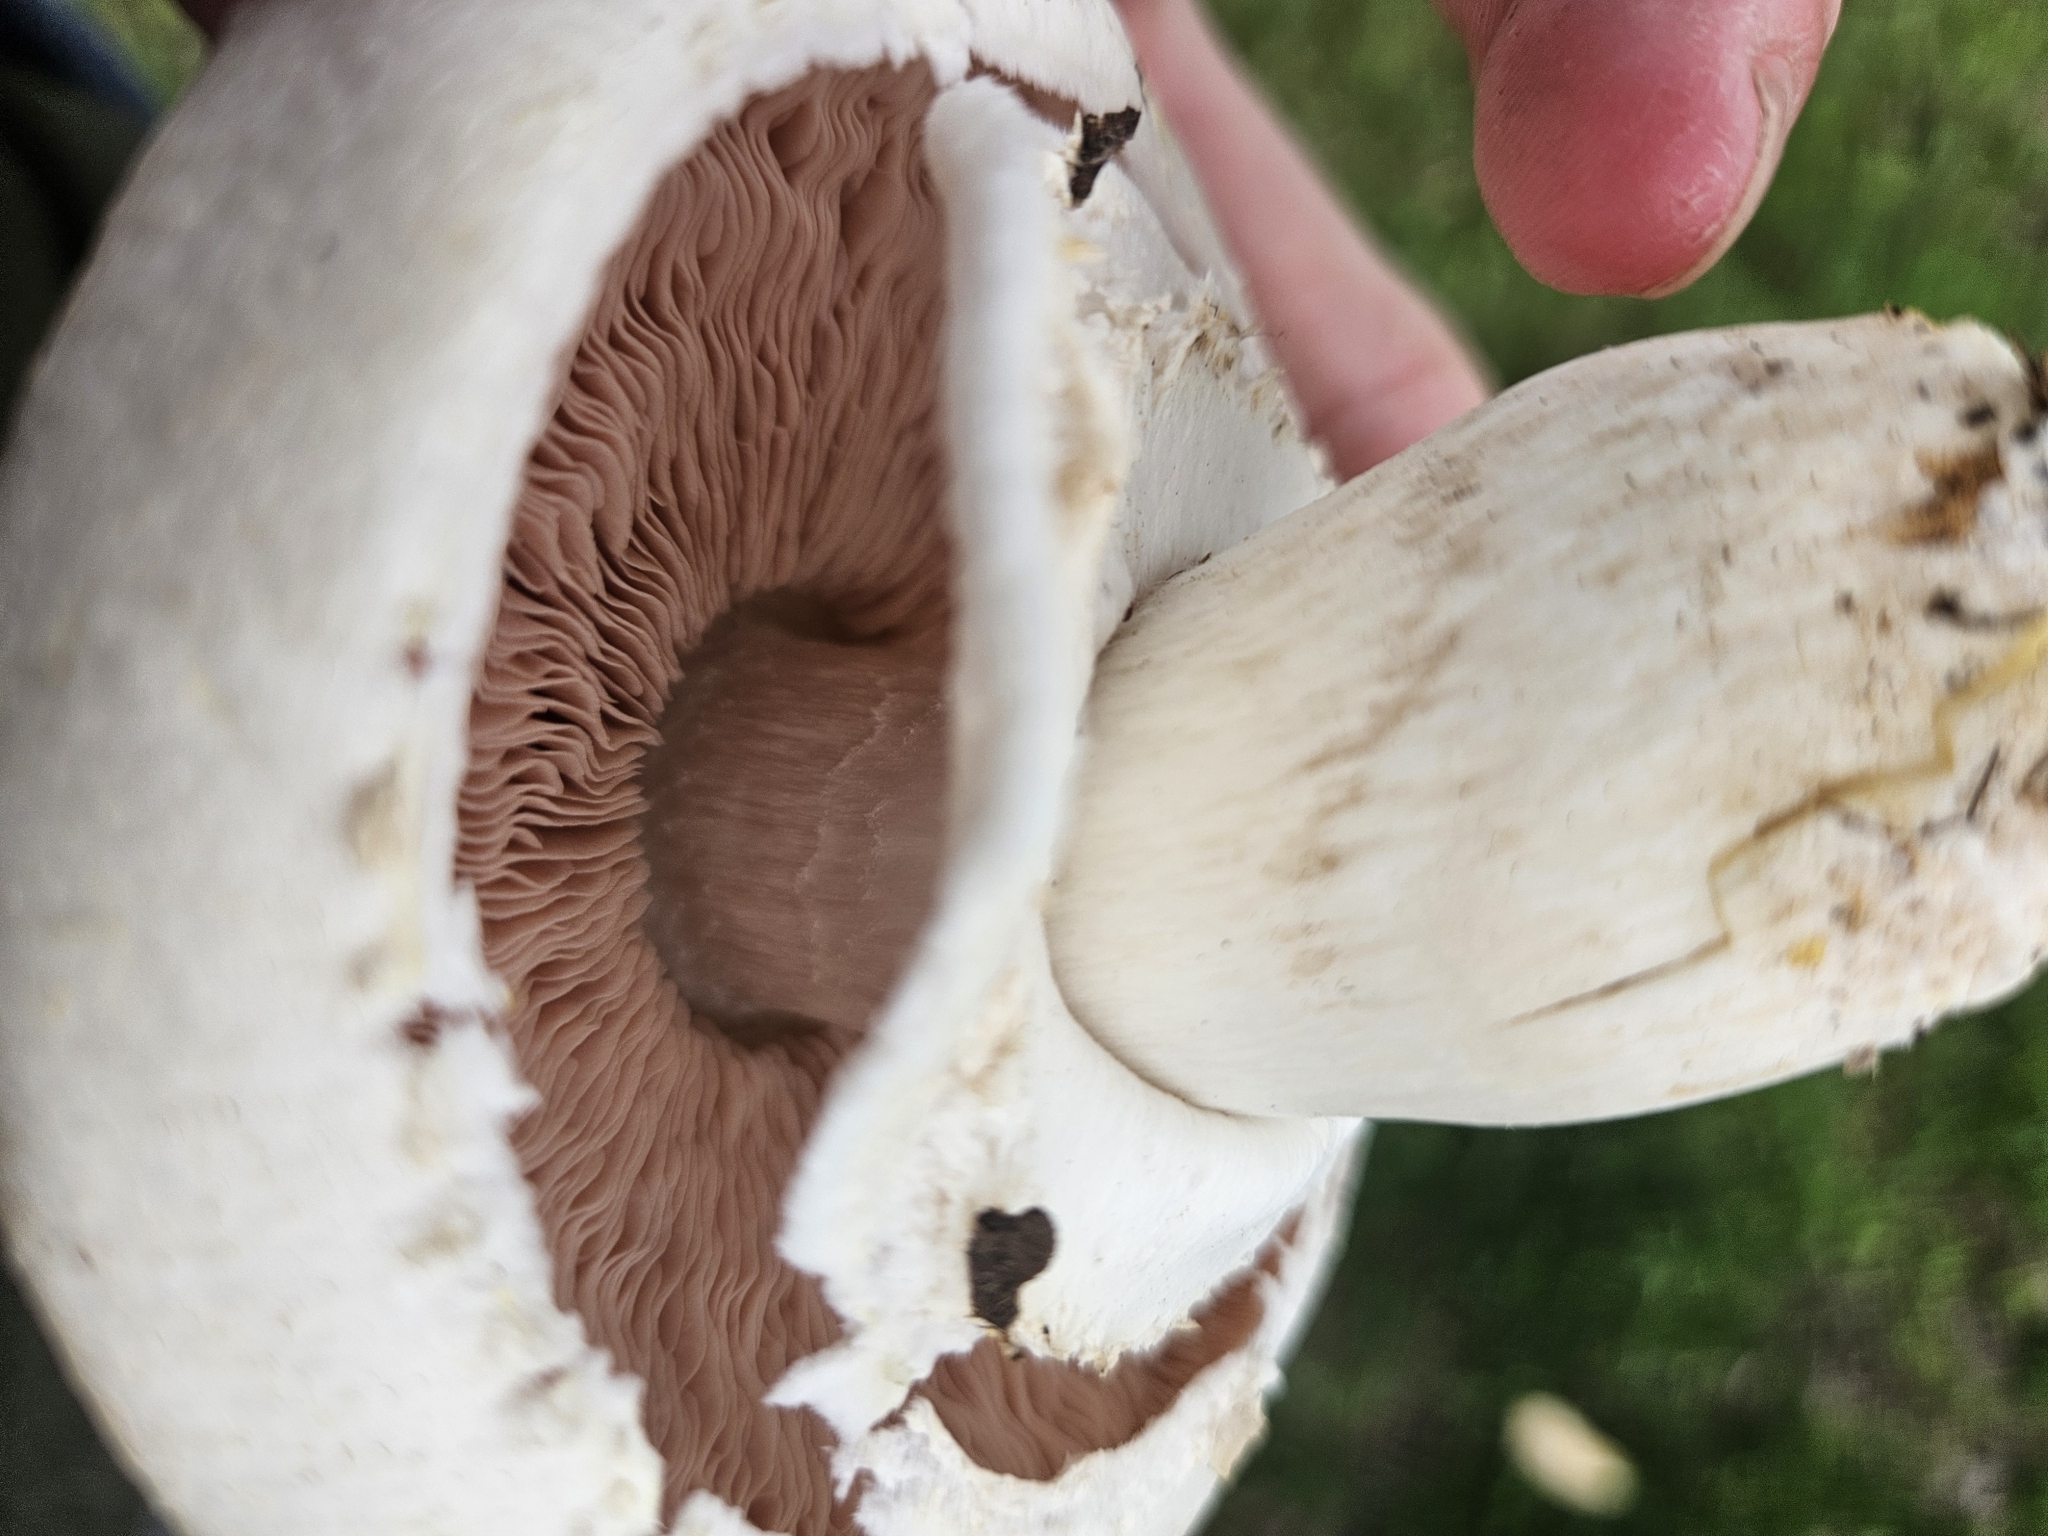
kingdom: Fungi
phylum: Basidiomycota
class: Agaricomycetes
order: Agaricales
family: Agaricaceae
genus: Agaricus
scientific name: Agaricus xanthodermus
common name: Yellow stainer
